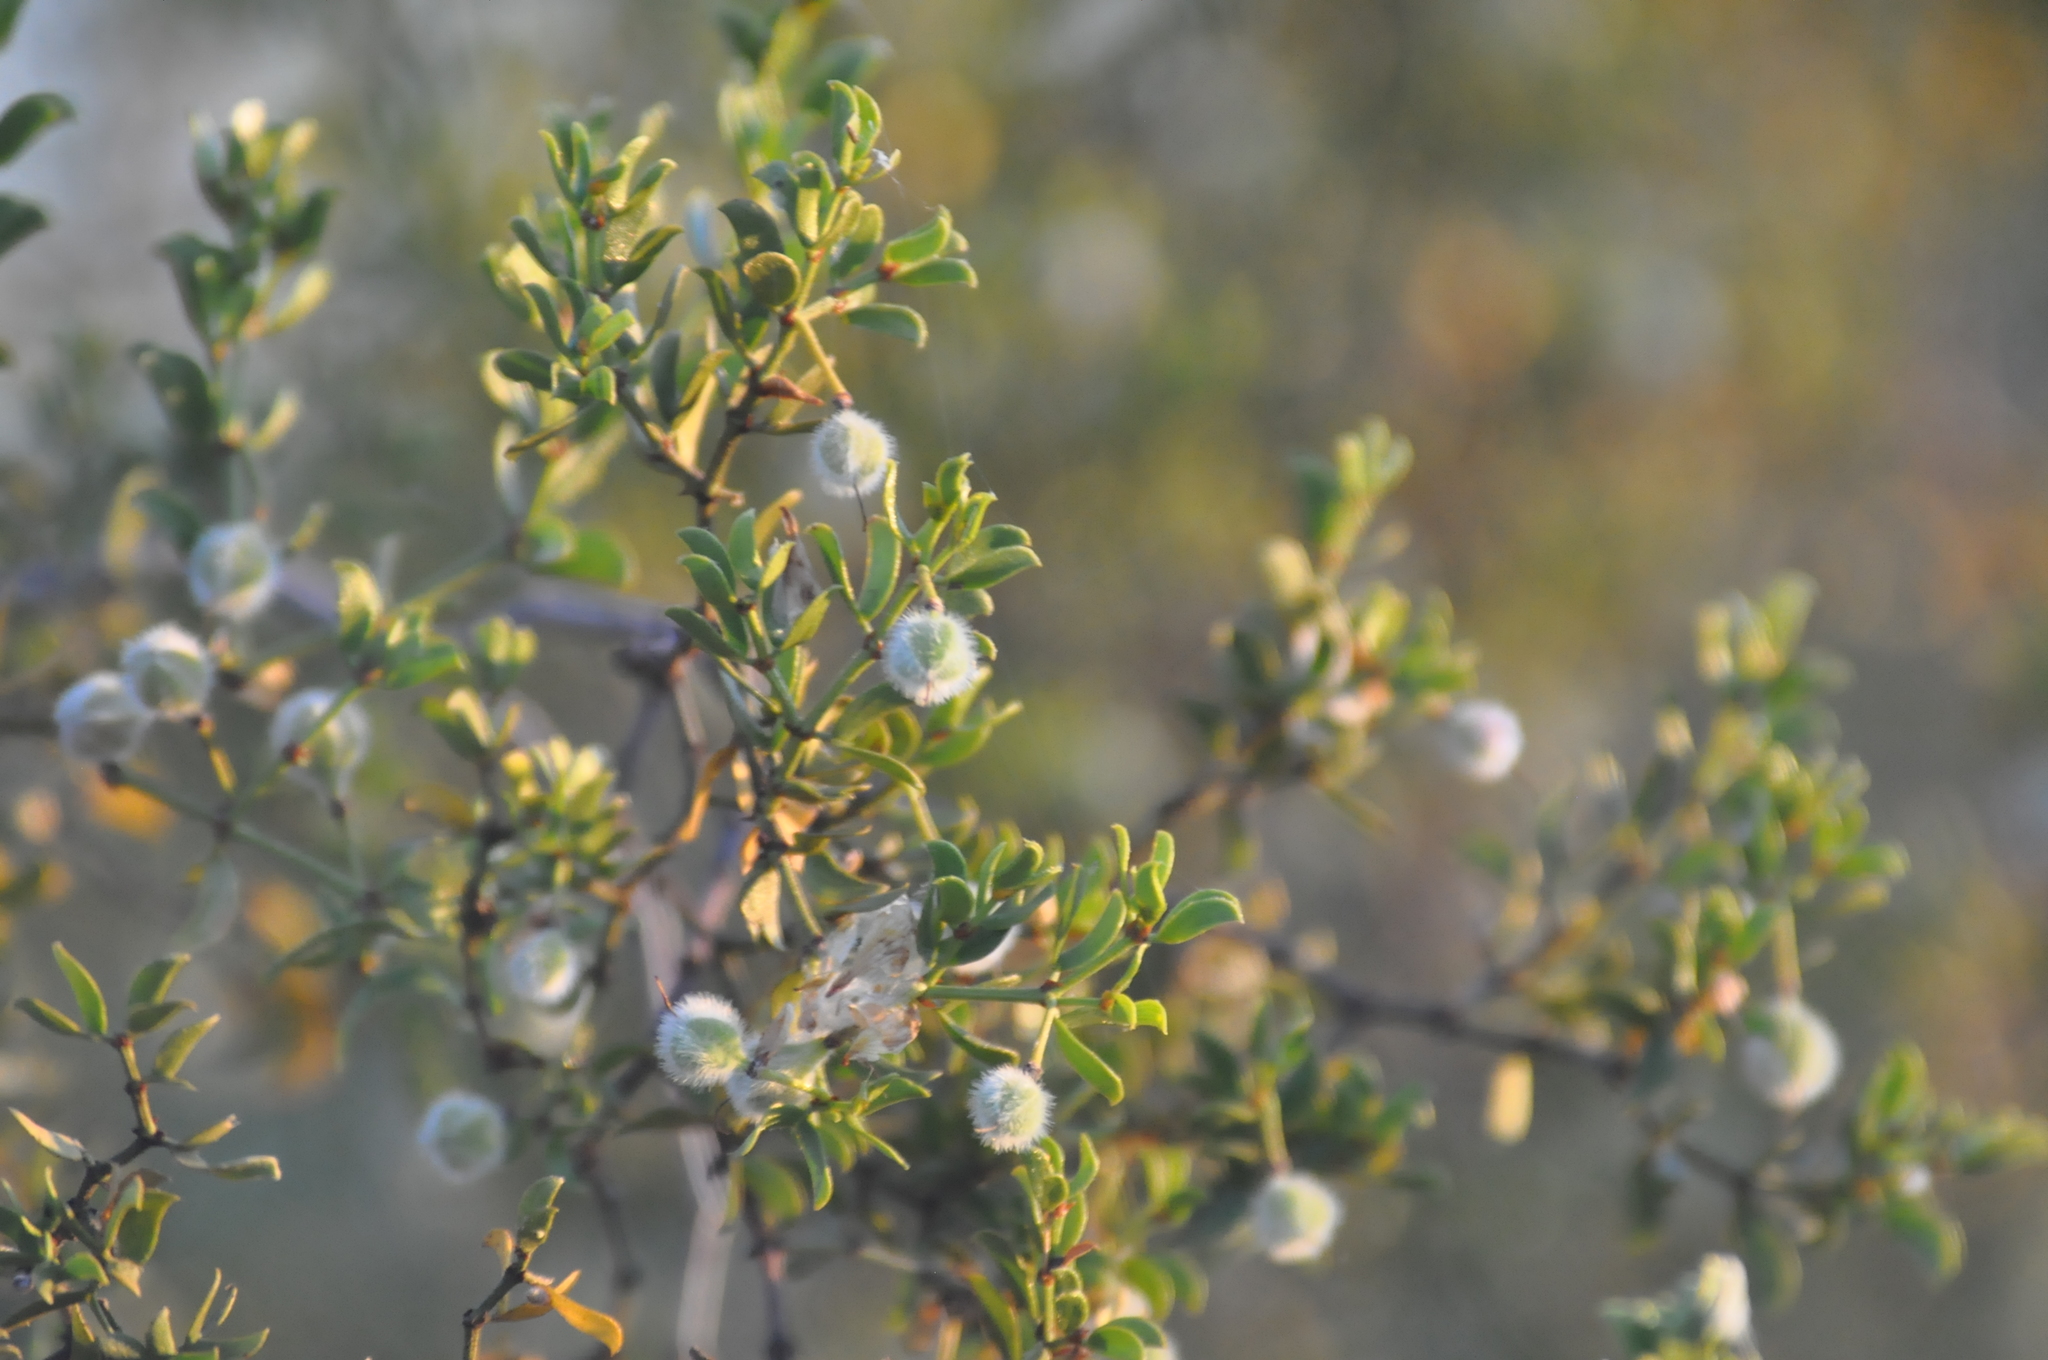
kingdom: Plantae
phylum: Tracheophyta
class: Magnoliopsida
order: Zygophyllales
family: Zygophyllaceae
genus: Larrea
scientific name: Larrea tridentata
